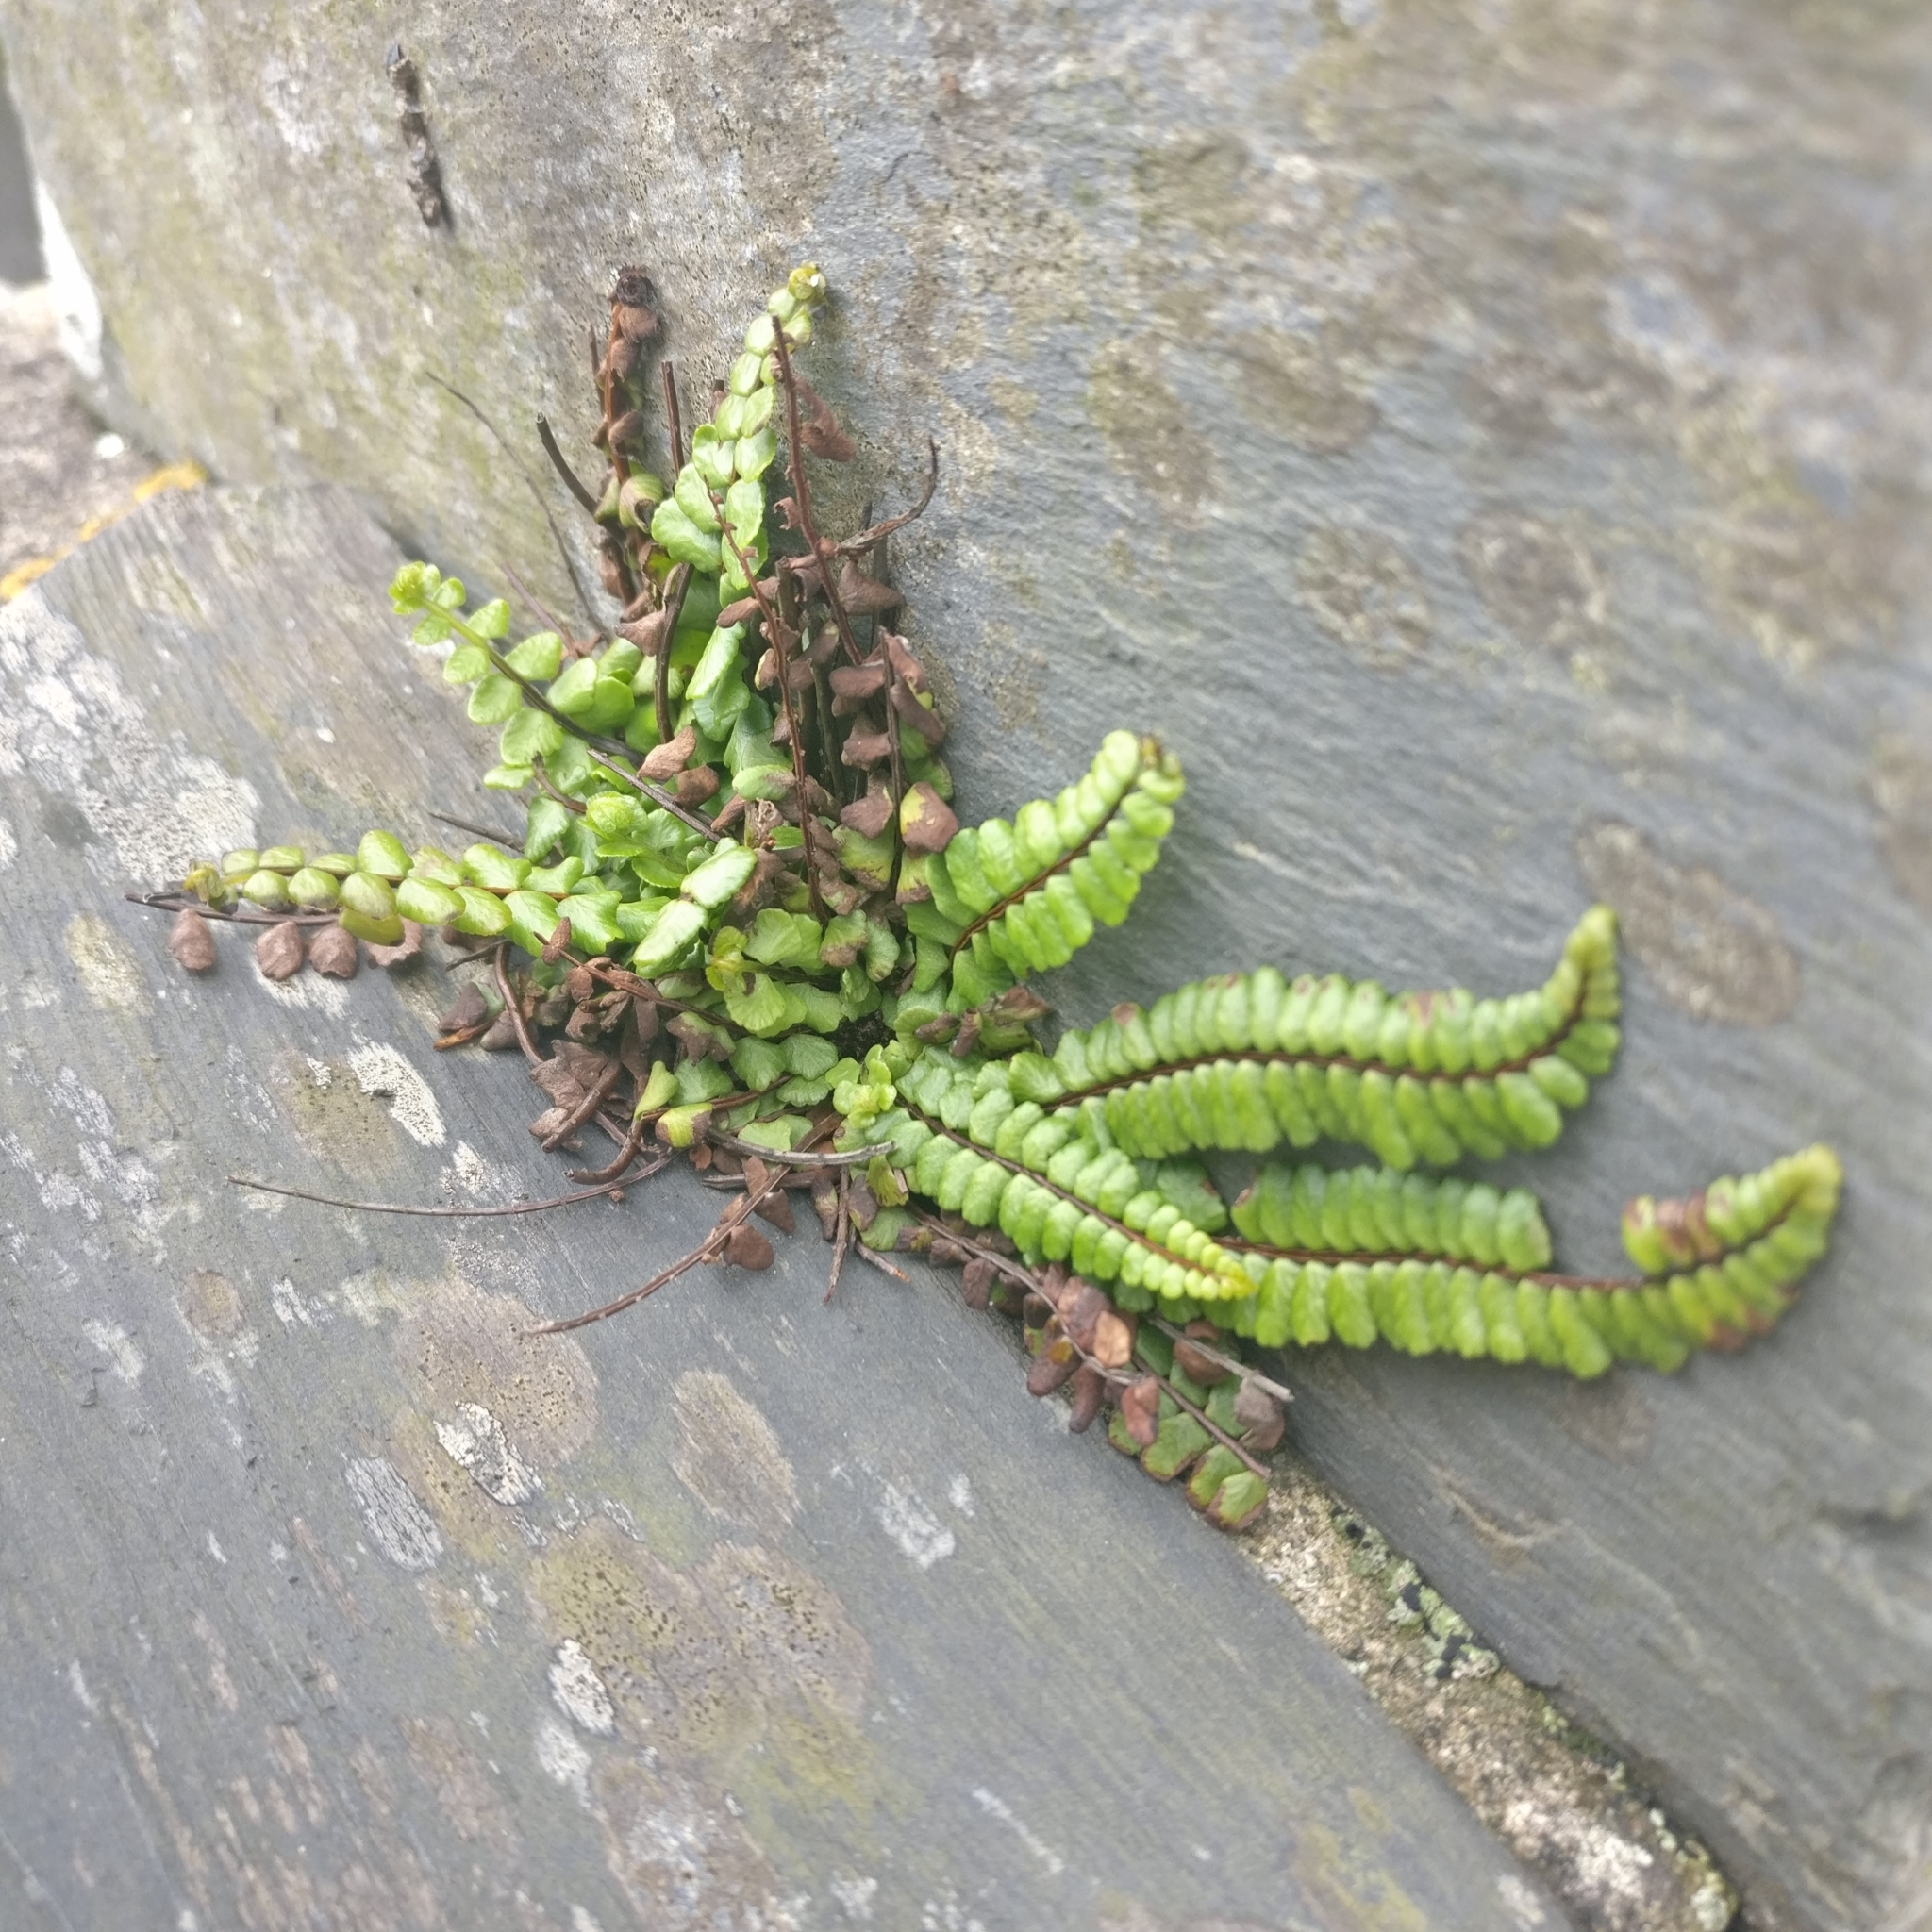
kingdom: Plantae
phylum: Tracheophyta
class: Polypodiopsida
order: Polypodiales
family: Aspleniaceae
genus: Asplenium
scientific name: Asplenium trichomanes
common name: Maidenhair spleenwort
